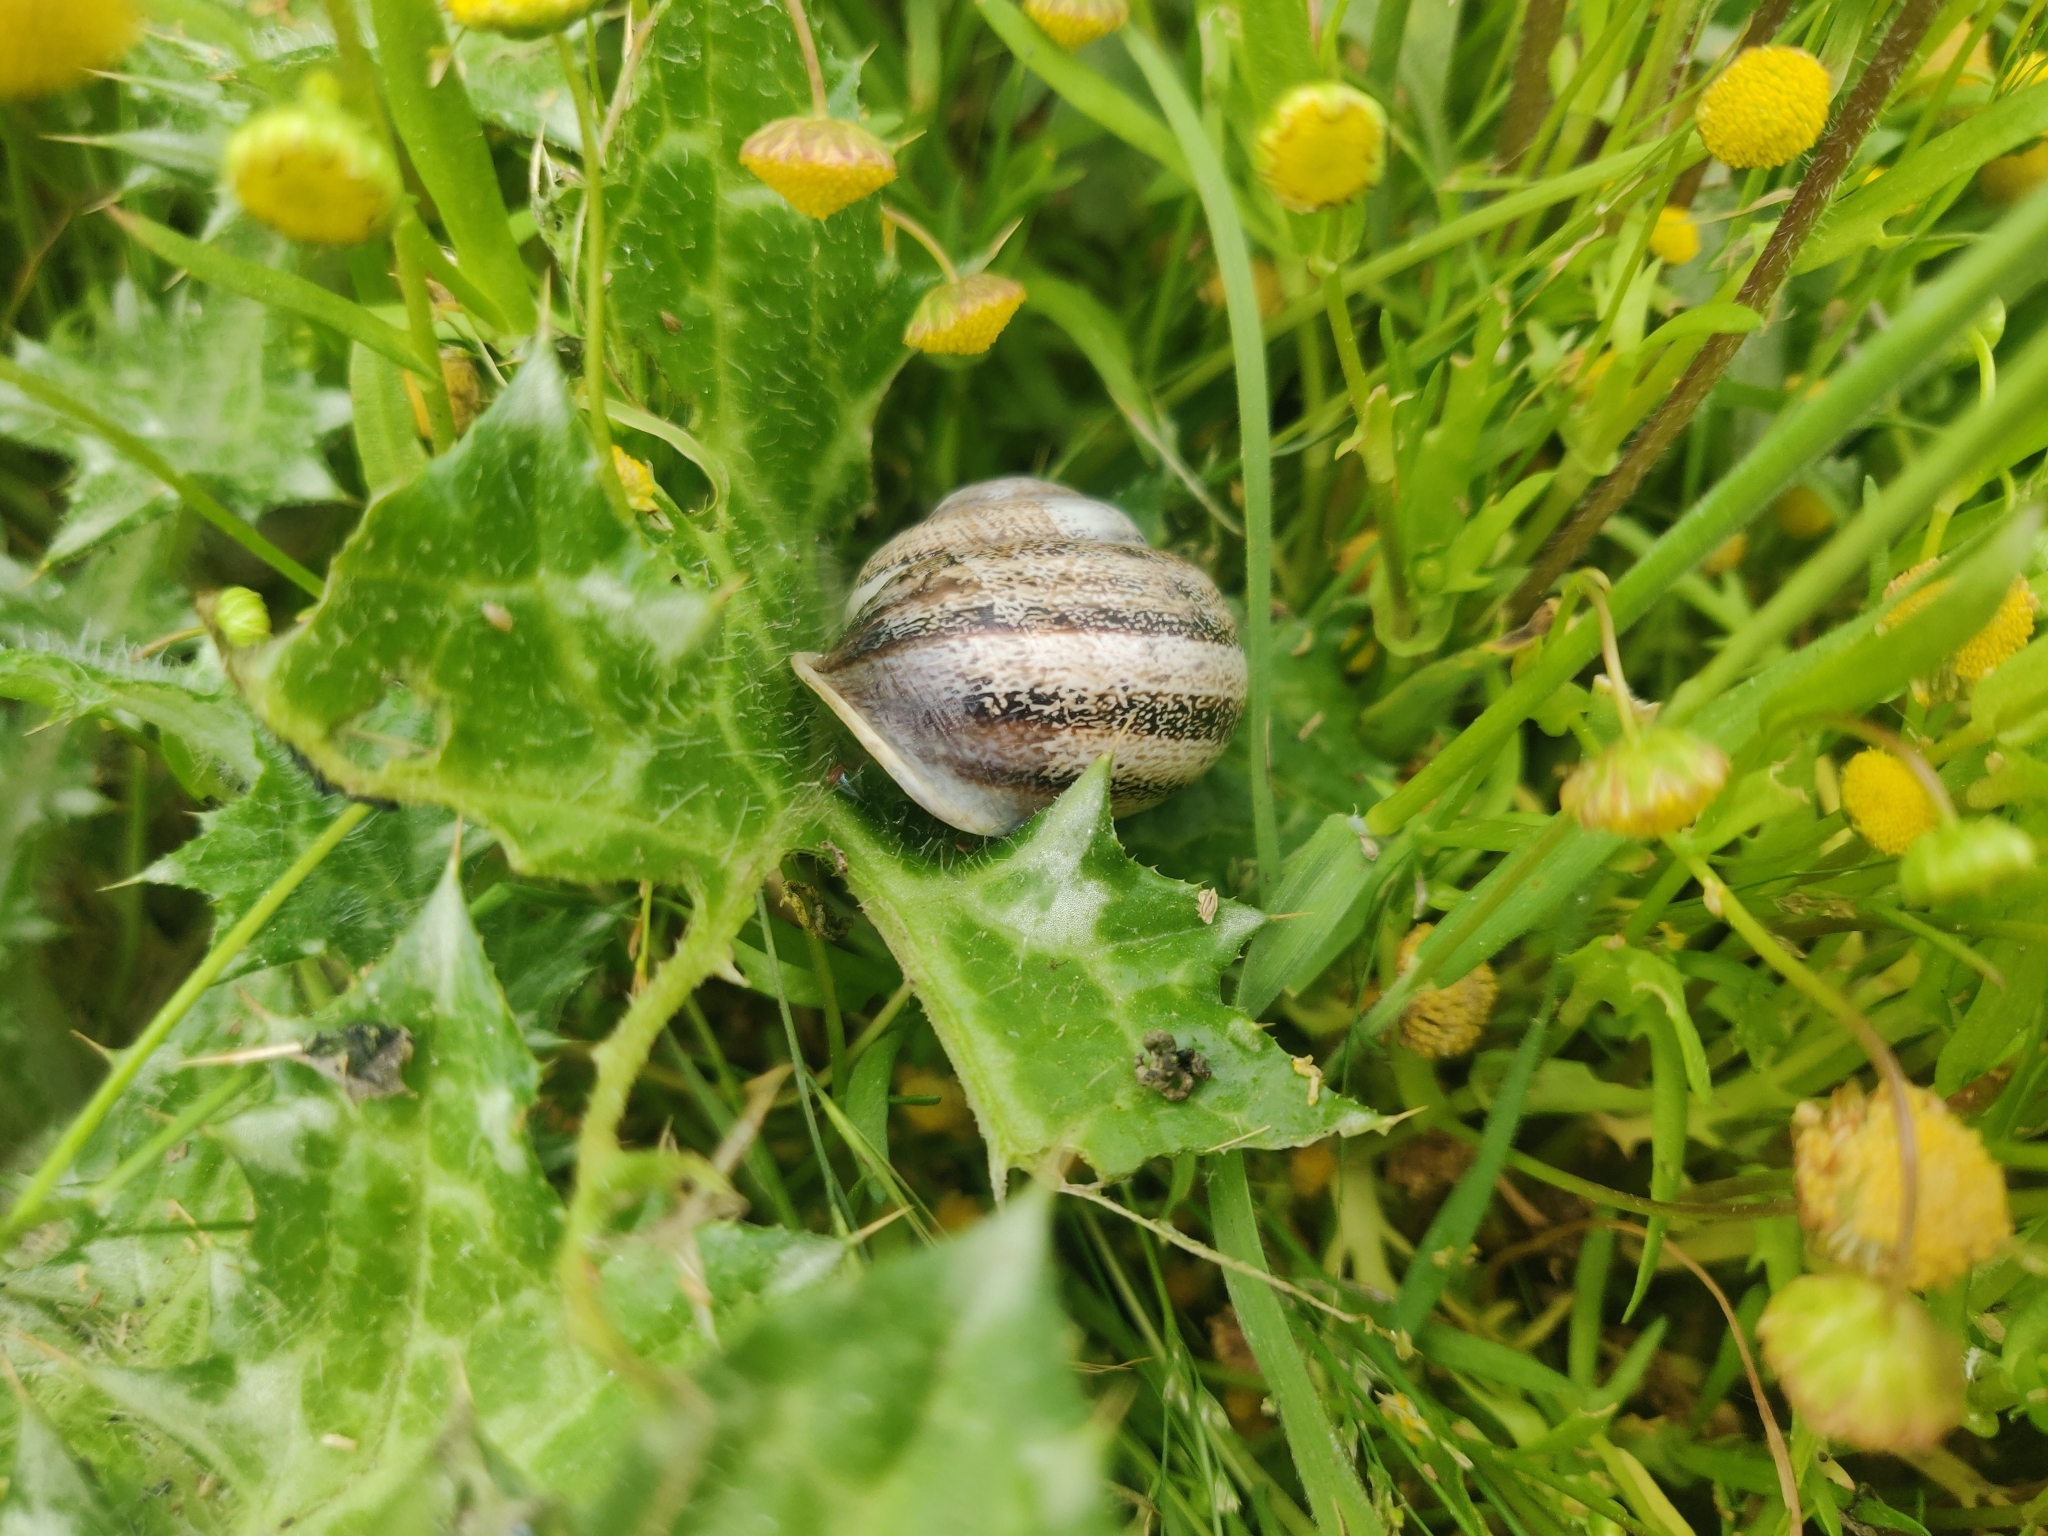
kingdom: Animalia
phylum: Mollusca
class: Gastropoda
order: Stylommatophora
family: Helicidae
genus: Otala
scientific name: Otala lactea
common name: Milk snail
